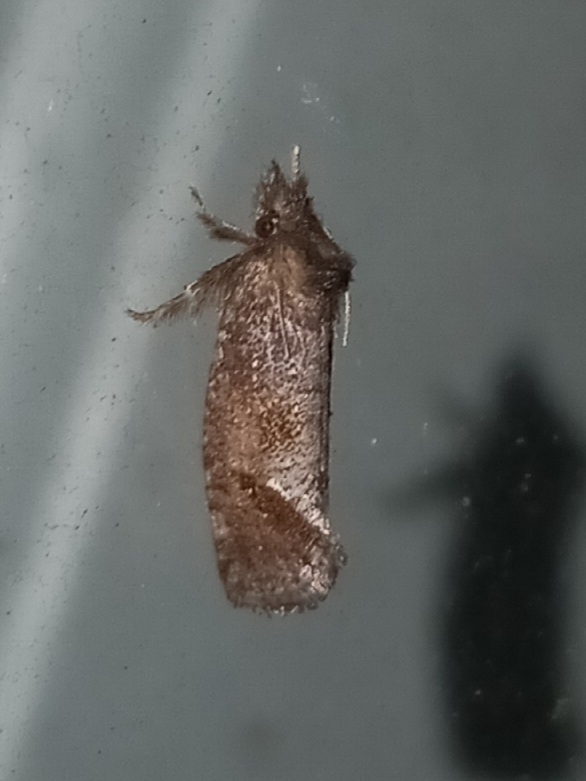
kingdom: Animalia
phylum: Arthropoda
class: Insecta
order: Lepidoptera
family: Tineidae
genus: Acrolophus
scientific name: Acrolophus texanella
